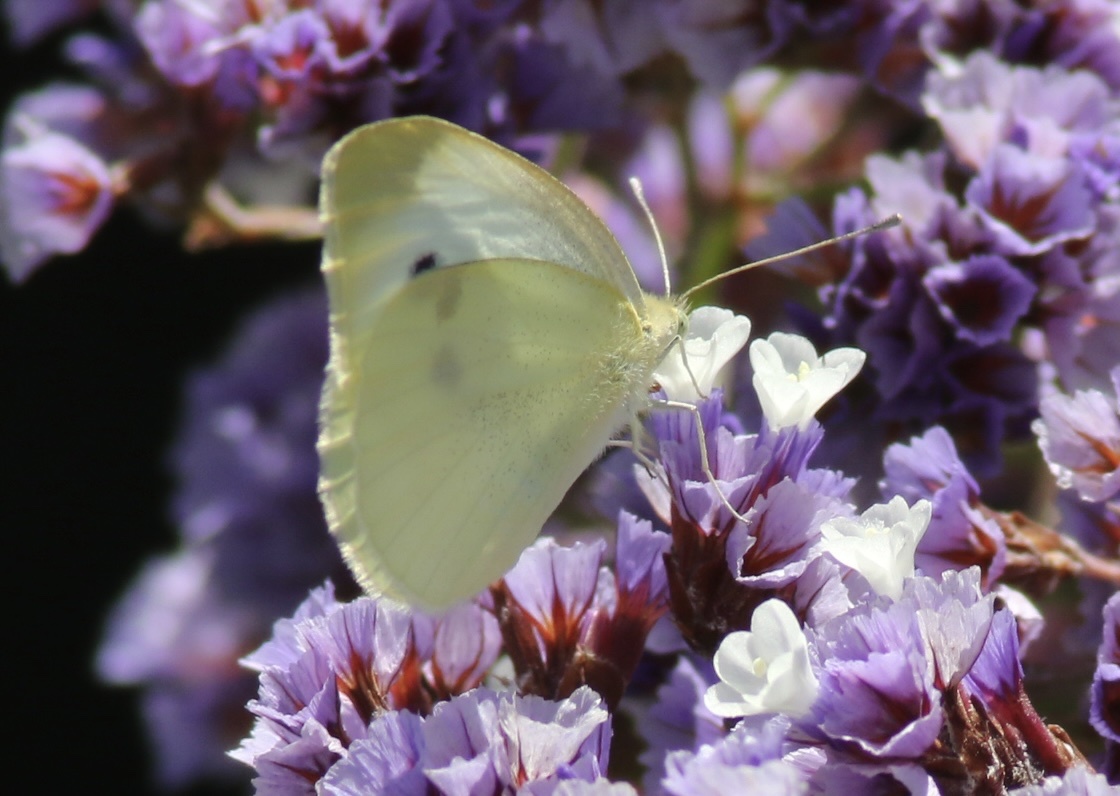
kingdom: Animalia
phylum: Arthropoda
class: Insecta
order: Lepidoptera
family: Pieridae
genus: Pieris
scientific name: Pieris rapae
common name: Small white
